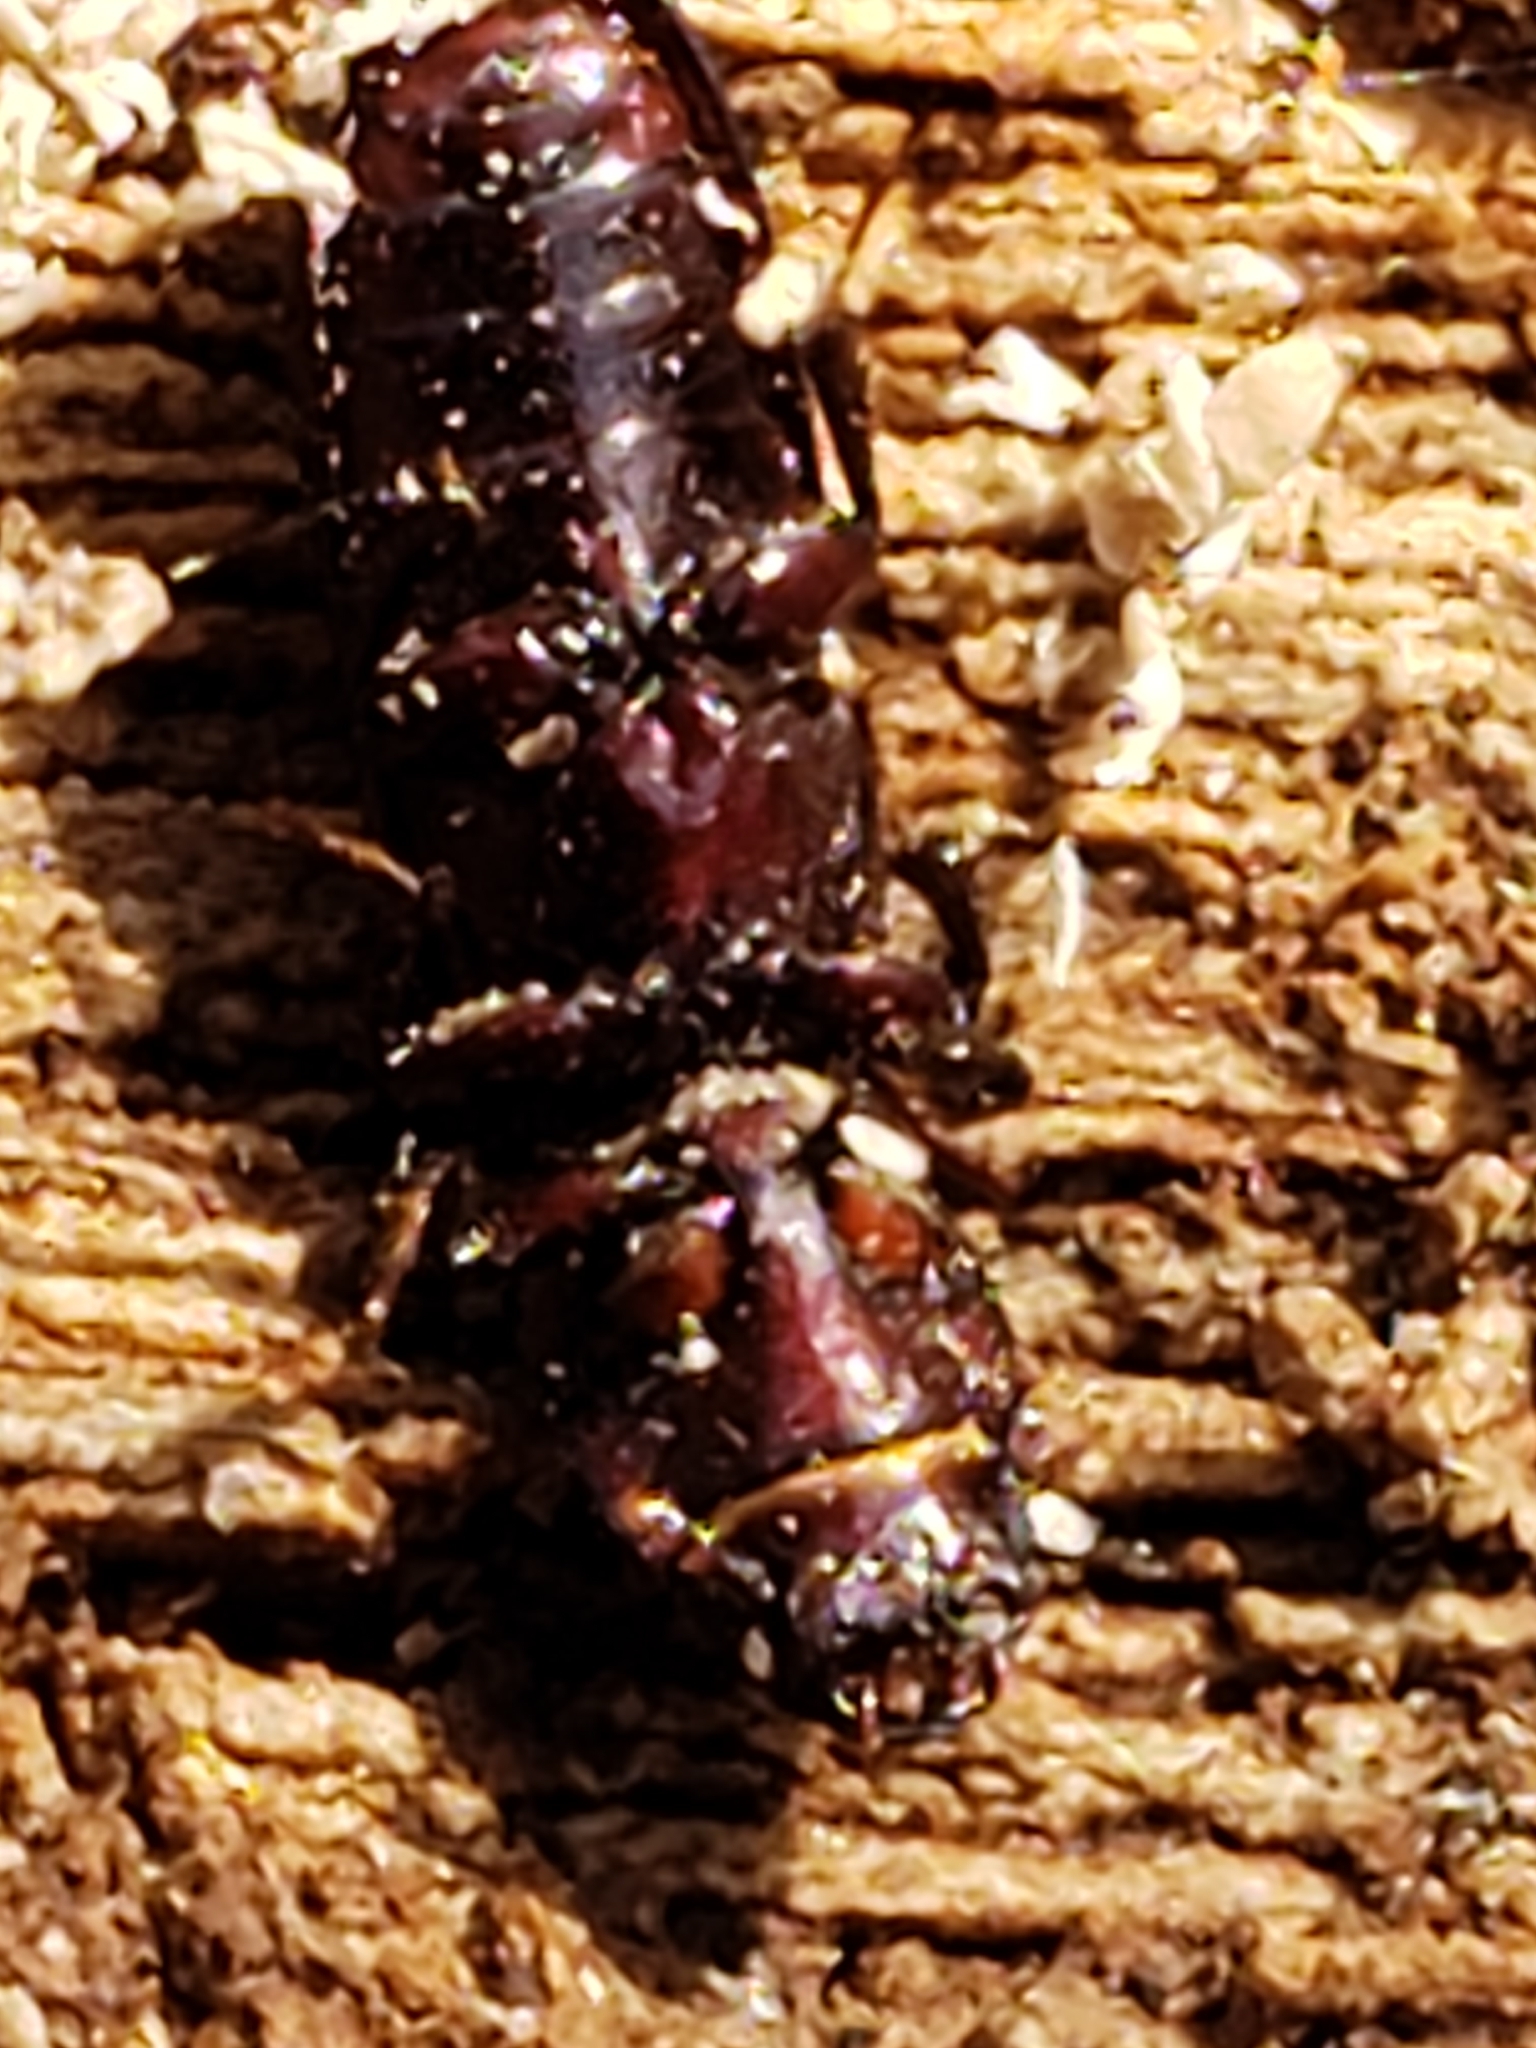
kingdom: Animalia
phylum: Arthropoda
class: Insecta
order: Coleoptera
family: Trogossitidae
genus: Airora
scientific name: Airora cylindrica
